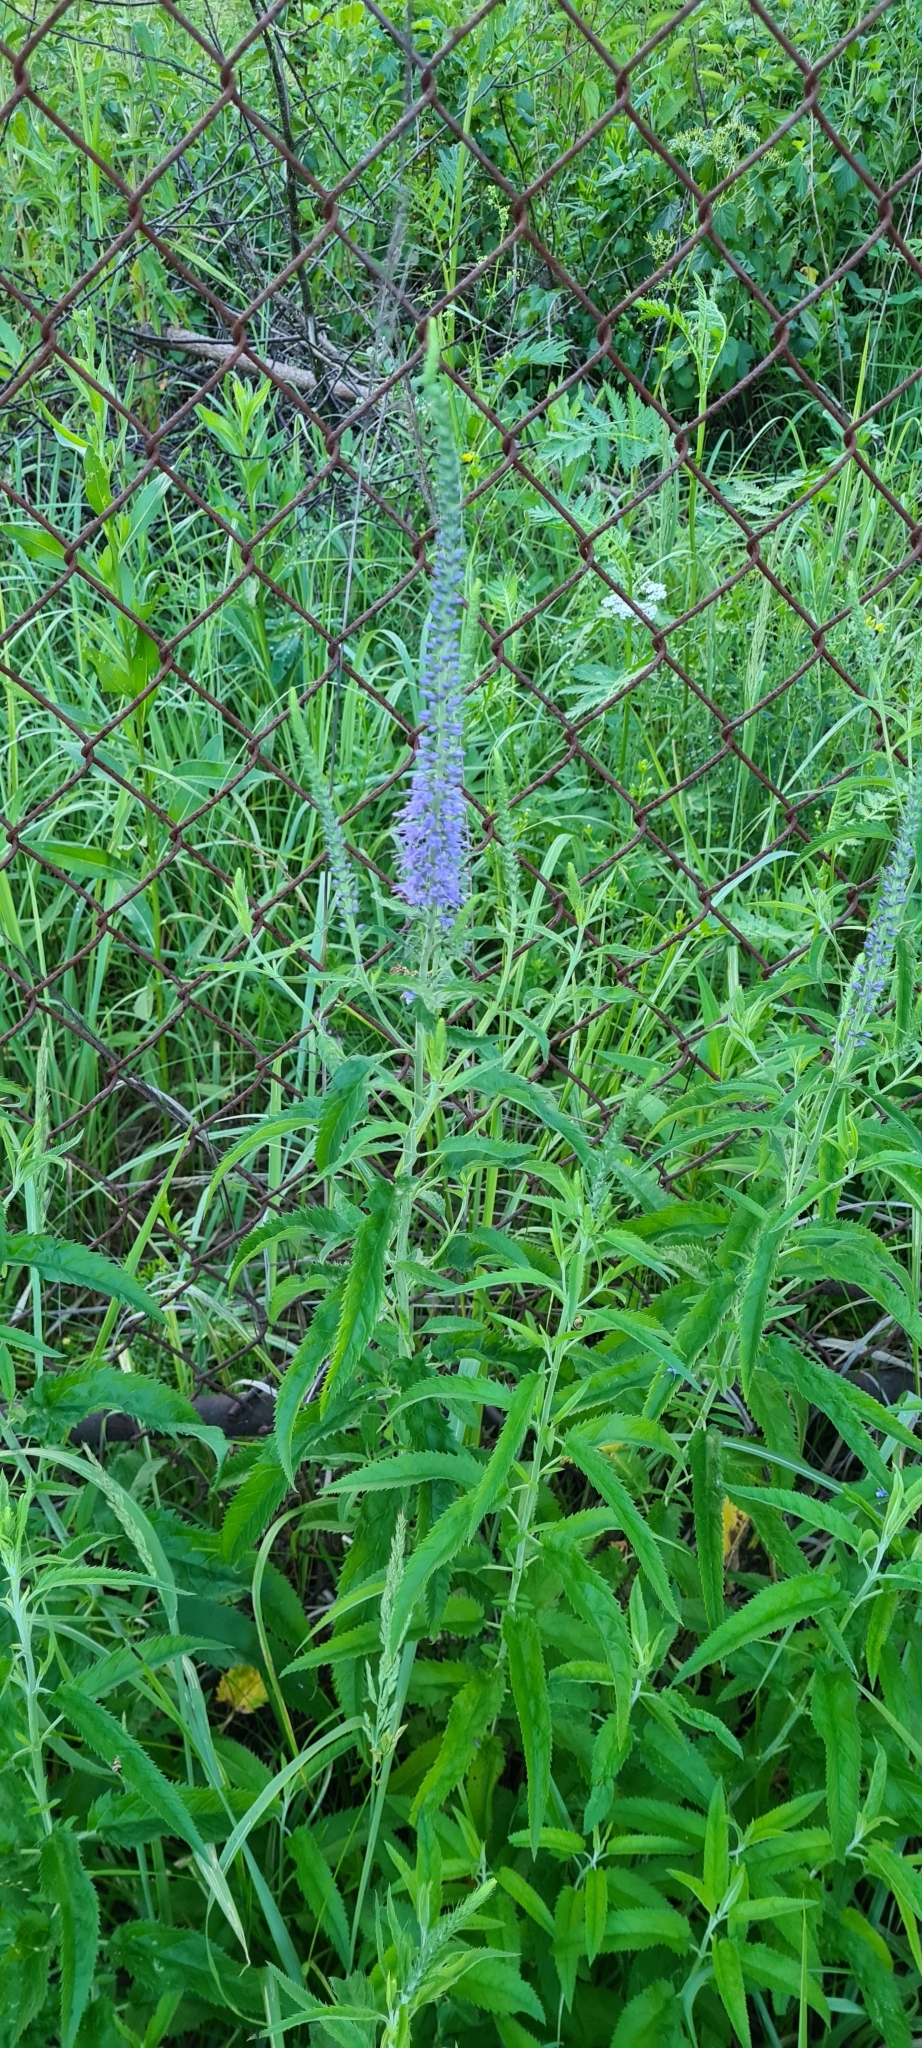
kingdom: Plantae
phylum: Tracheophyta
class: Magnoliopsida
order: Lamiales
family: Plantaginaceae
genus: Veronica
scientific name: Veronica longifolia
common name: Garden speedwell
